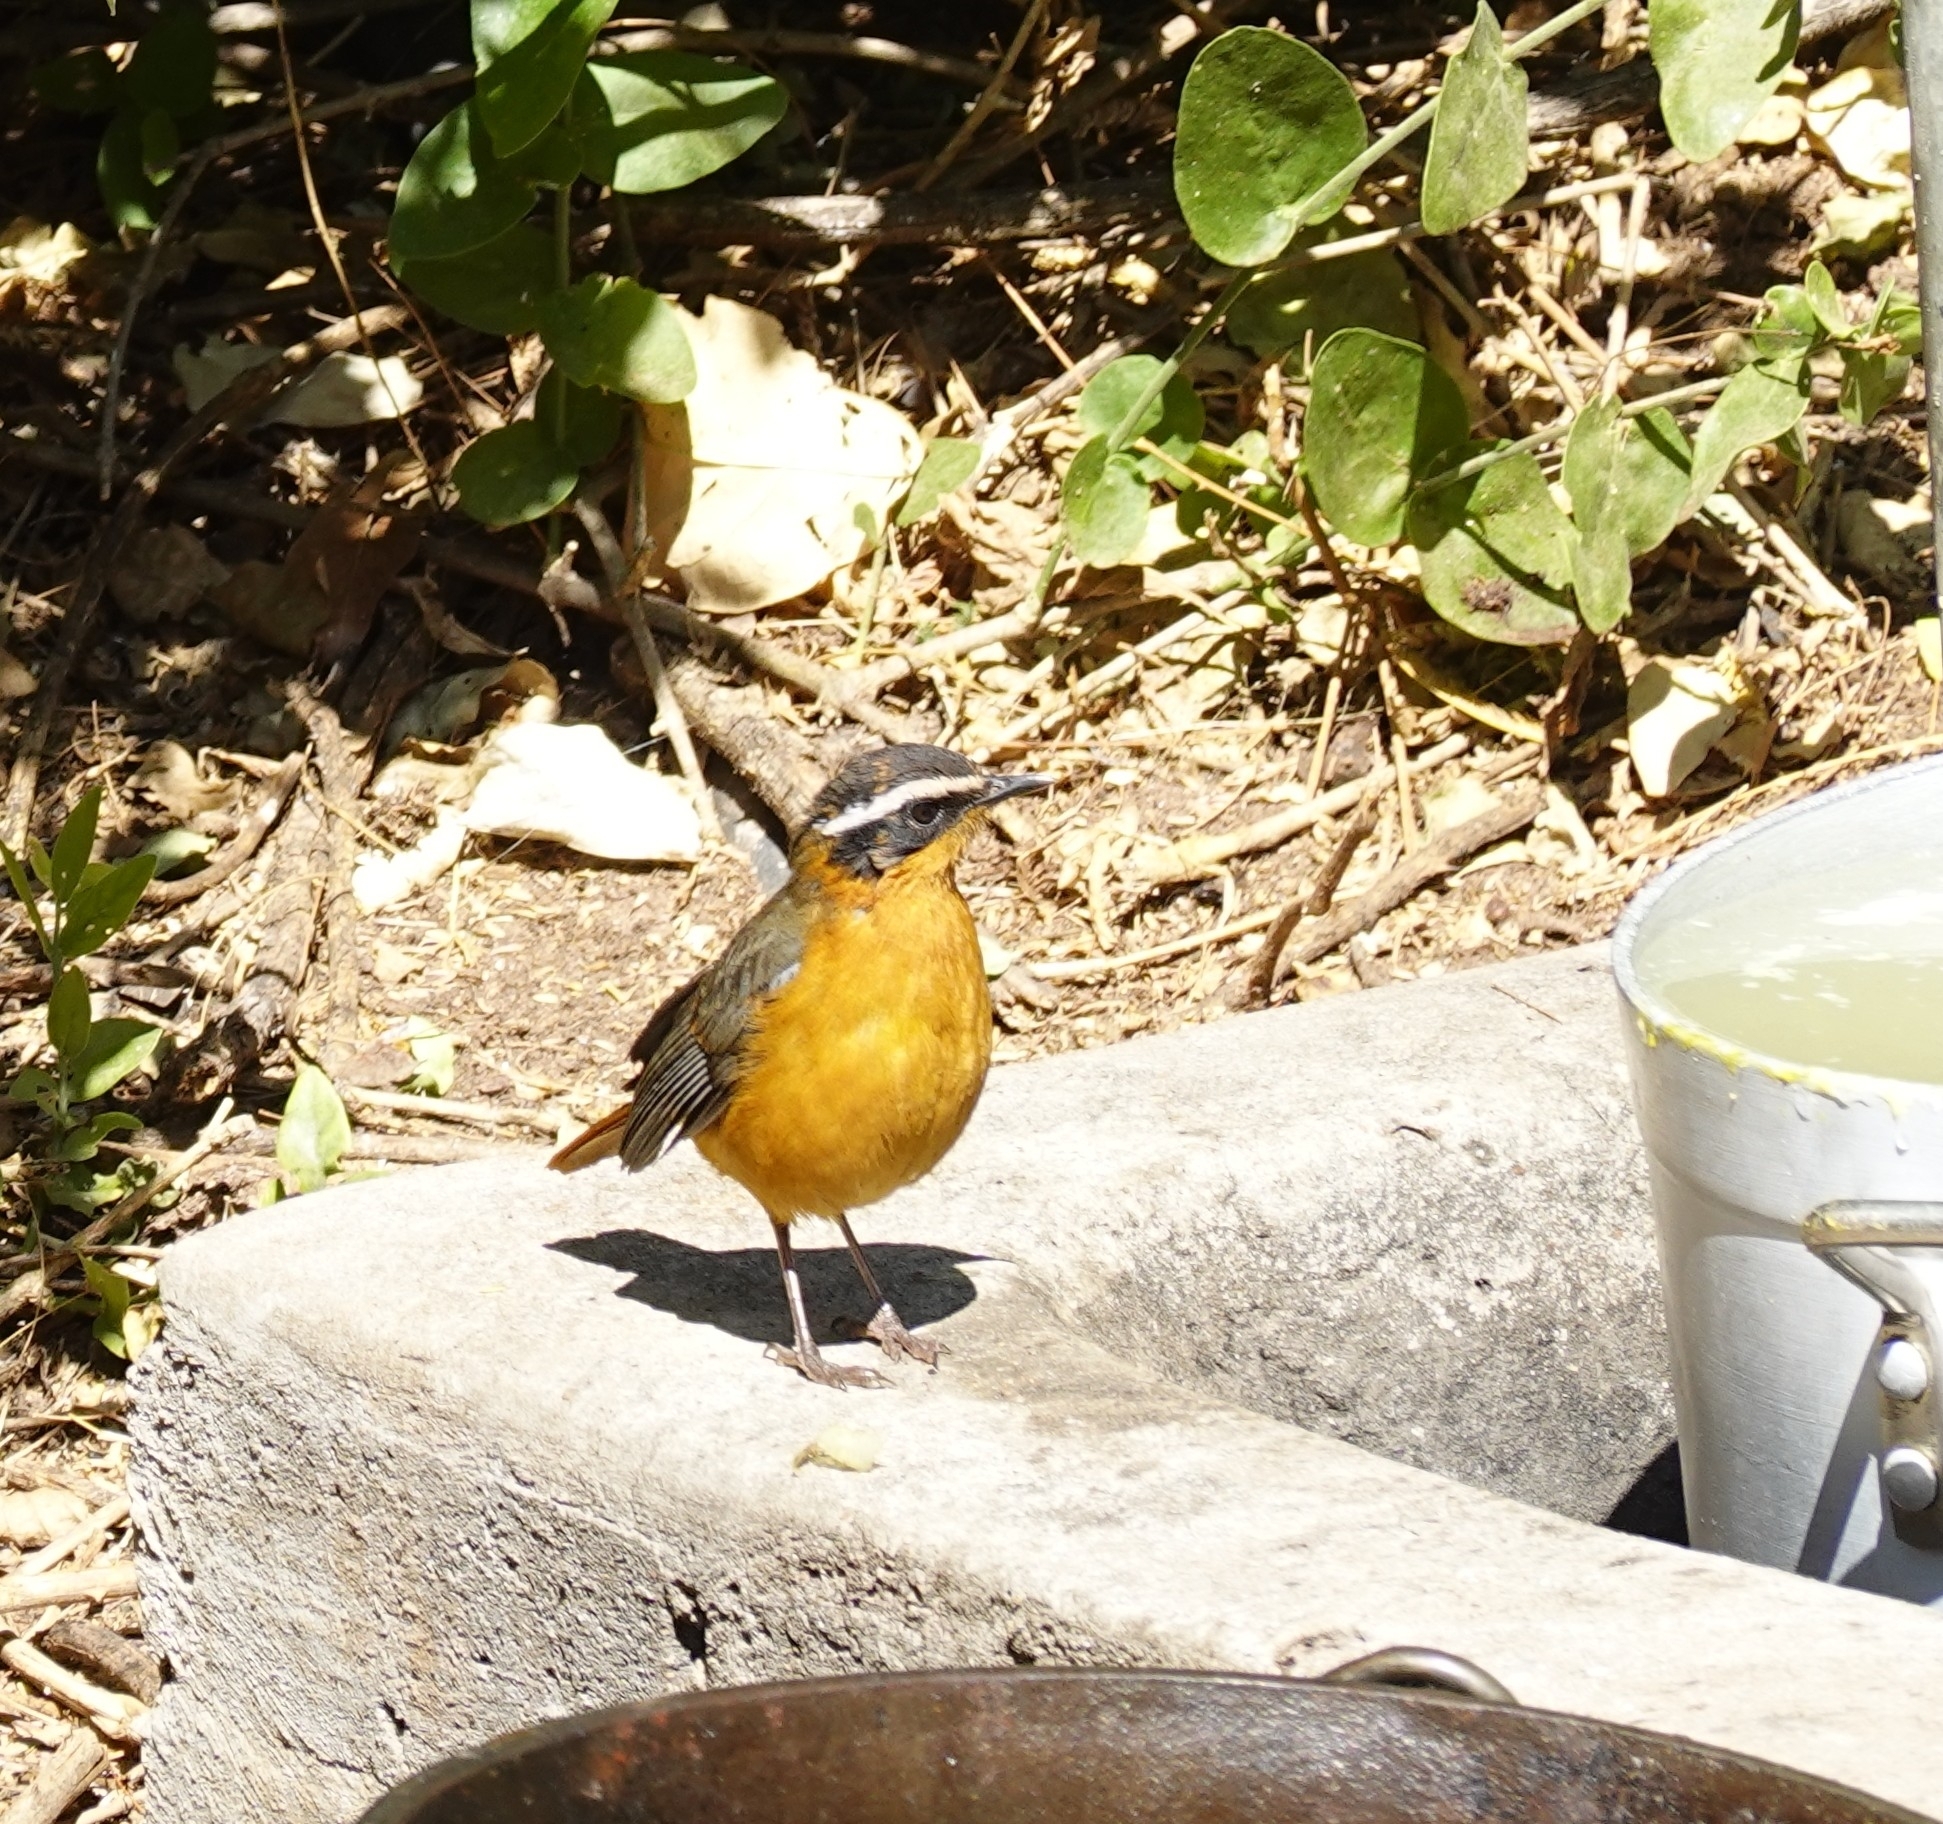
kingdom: Animalia
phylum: Chordata
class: Aves
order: Passeriformes
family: Muscicapidae
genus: Cossypha
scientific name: Cossypha heuglini
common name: White-browed robin-chat
